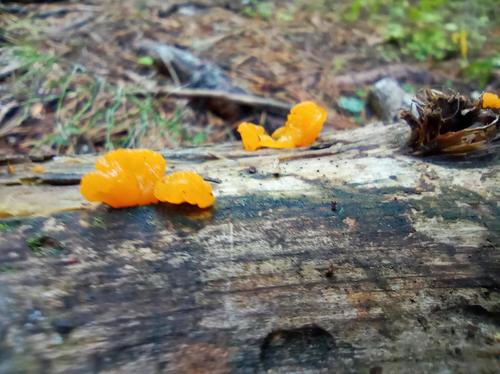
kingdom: Fungi
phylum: Basidiomycota
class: Dacrymycetes
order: Dacrymycetales
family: Dacrymycetaceae
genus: Dacrymyces
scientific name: Dacrymyces chrysospermus
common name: Orange jelly spot
